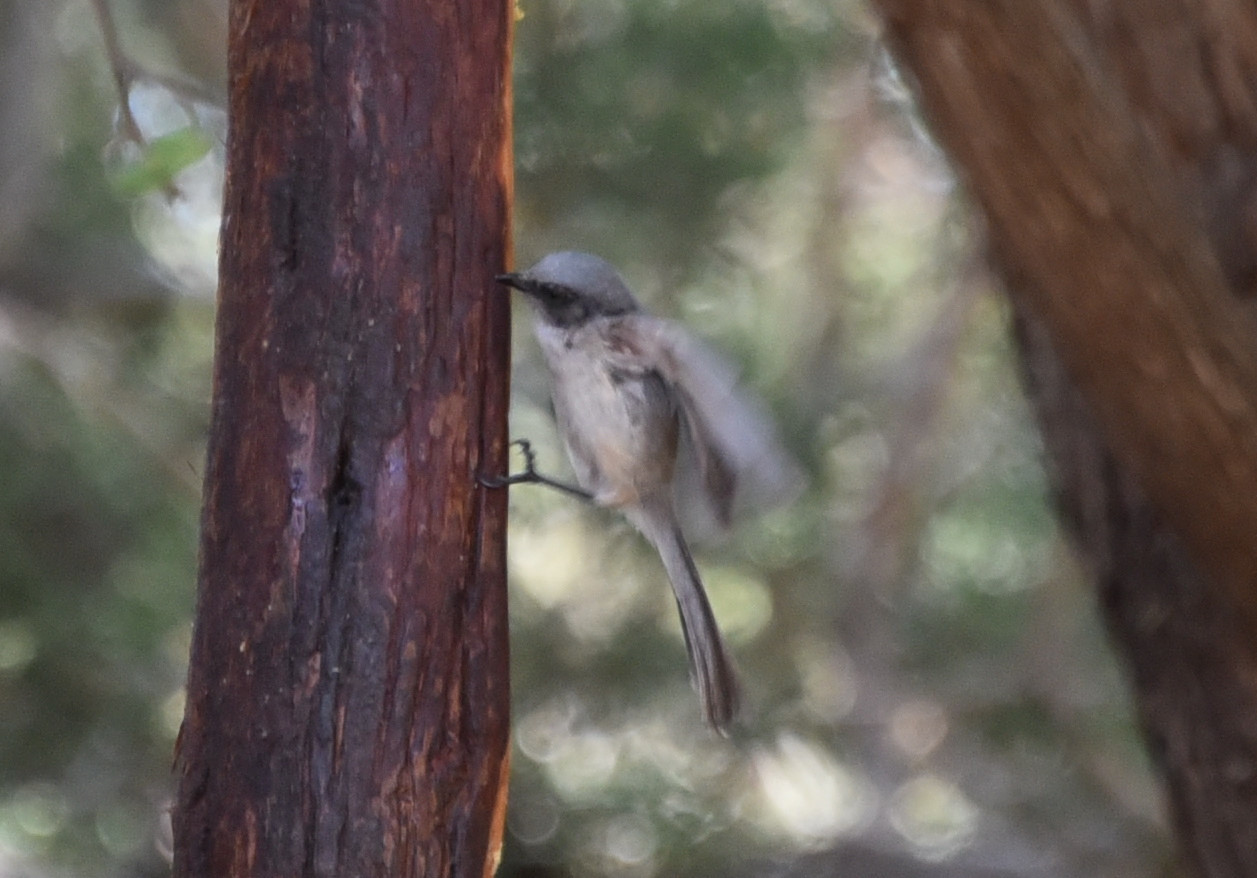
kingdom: Animalia
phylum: Chordata
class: Aves
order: Passeriformes
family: Aegithalidae
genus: Psaltriparus
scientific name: Psaltriparus minimus
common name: American bushtit
